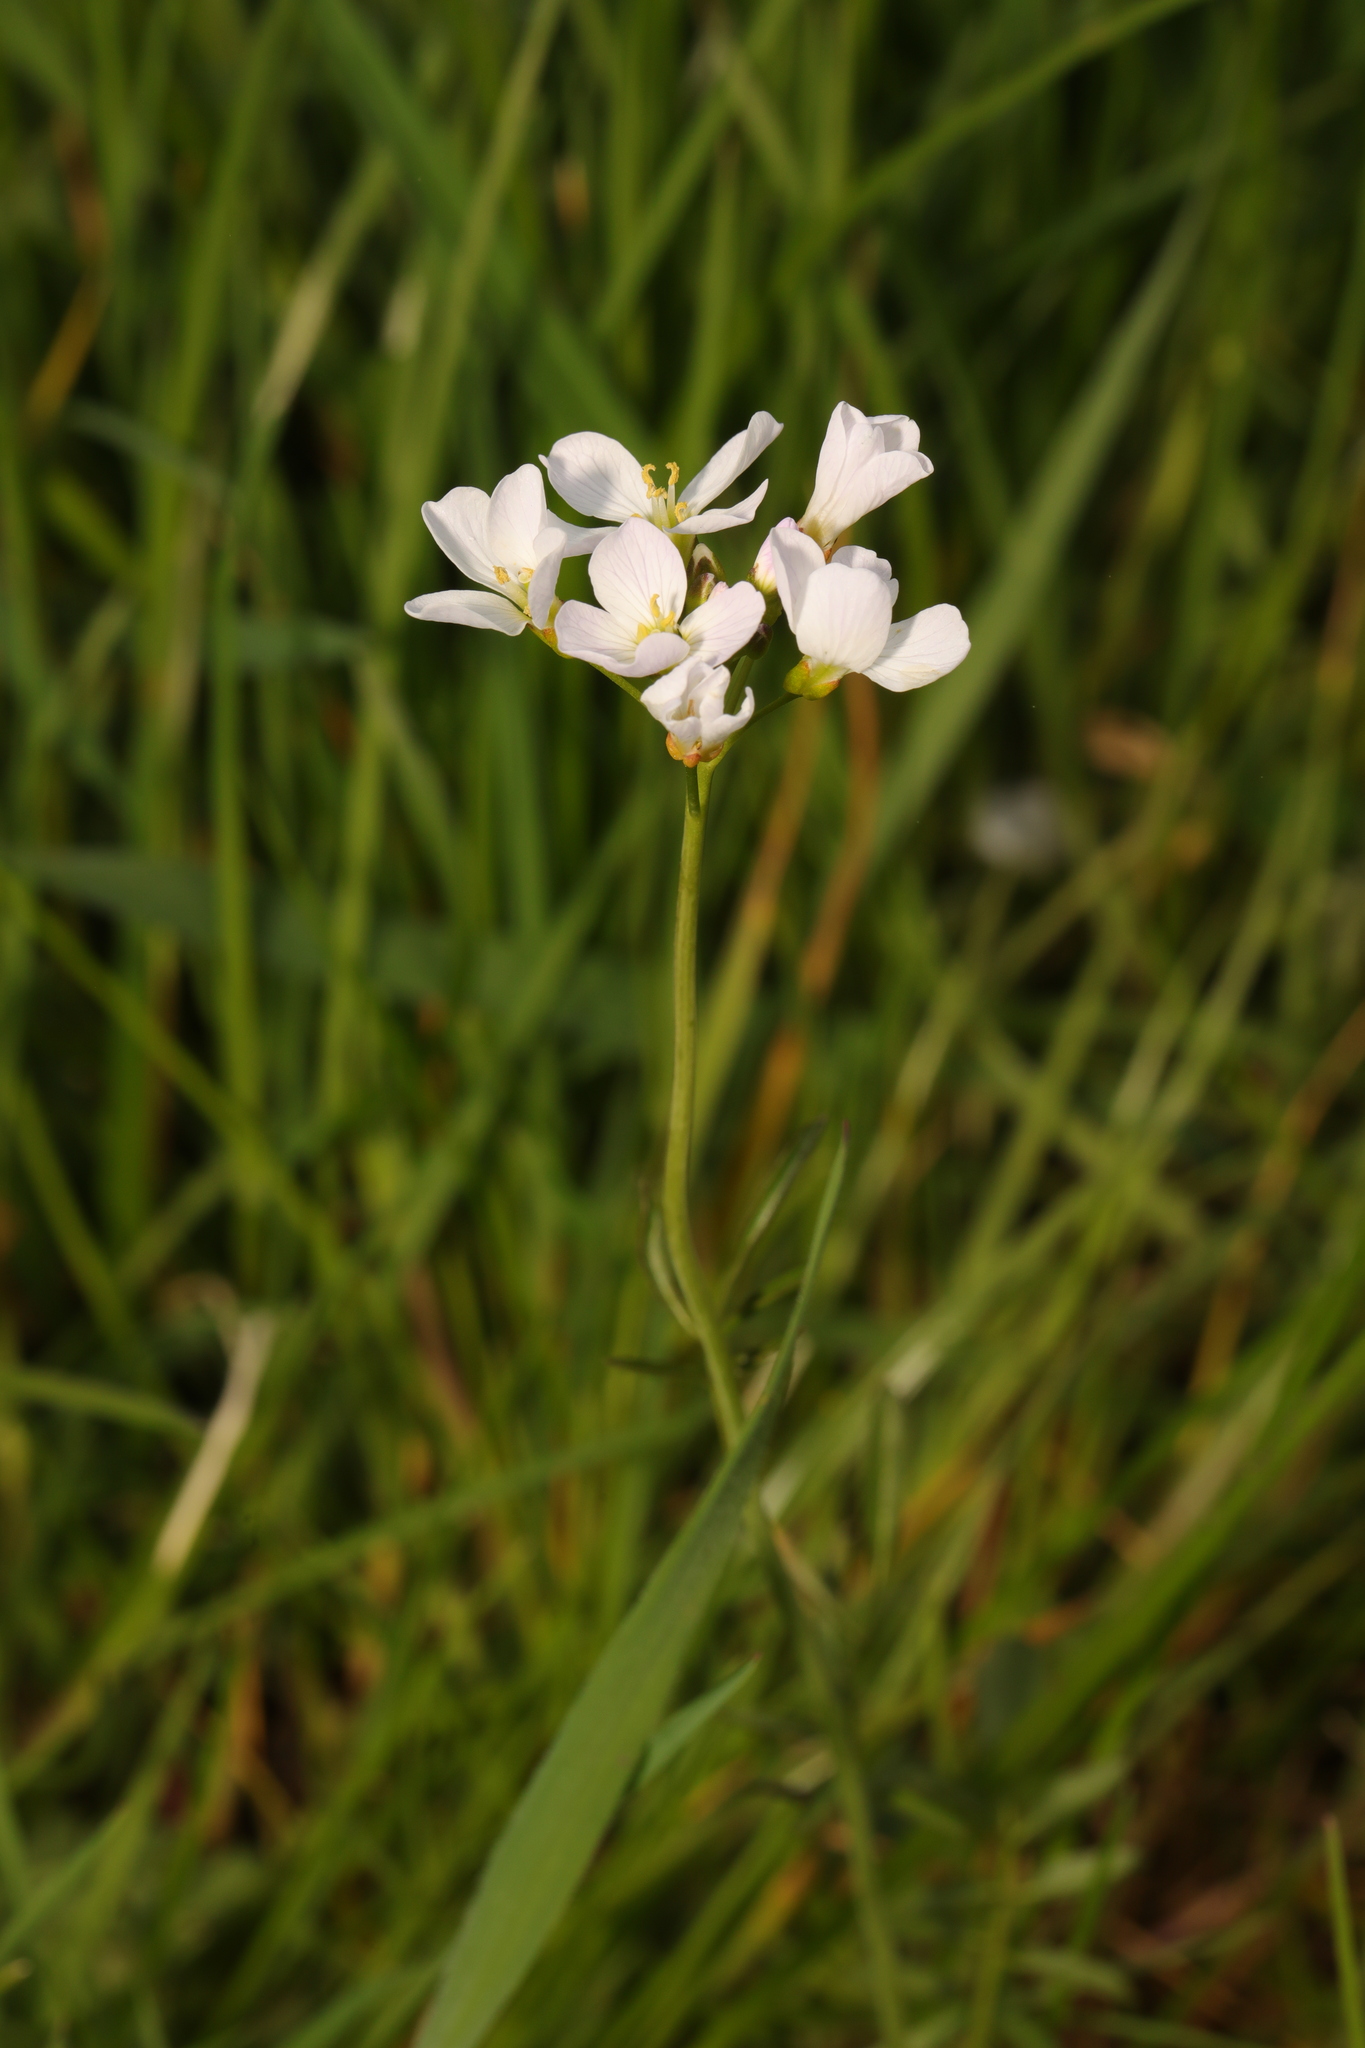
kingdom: Plantae
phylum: Tracheophyta
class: Magnoliopsida
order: Brassicales
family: Brassicaceae
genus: Cardamine
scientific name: Cardamine pratensis
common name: Cuckoo flower
